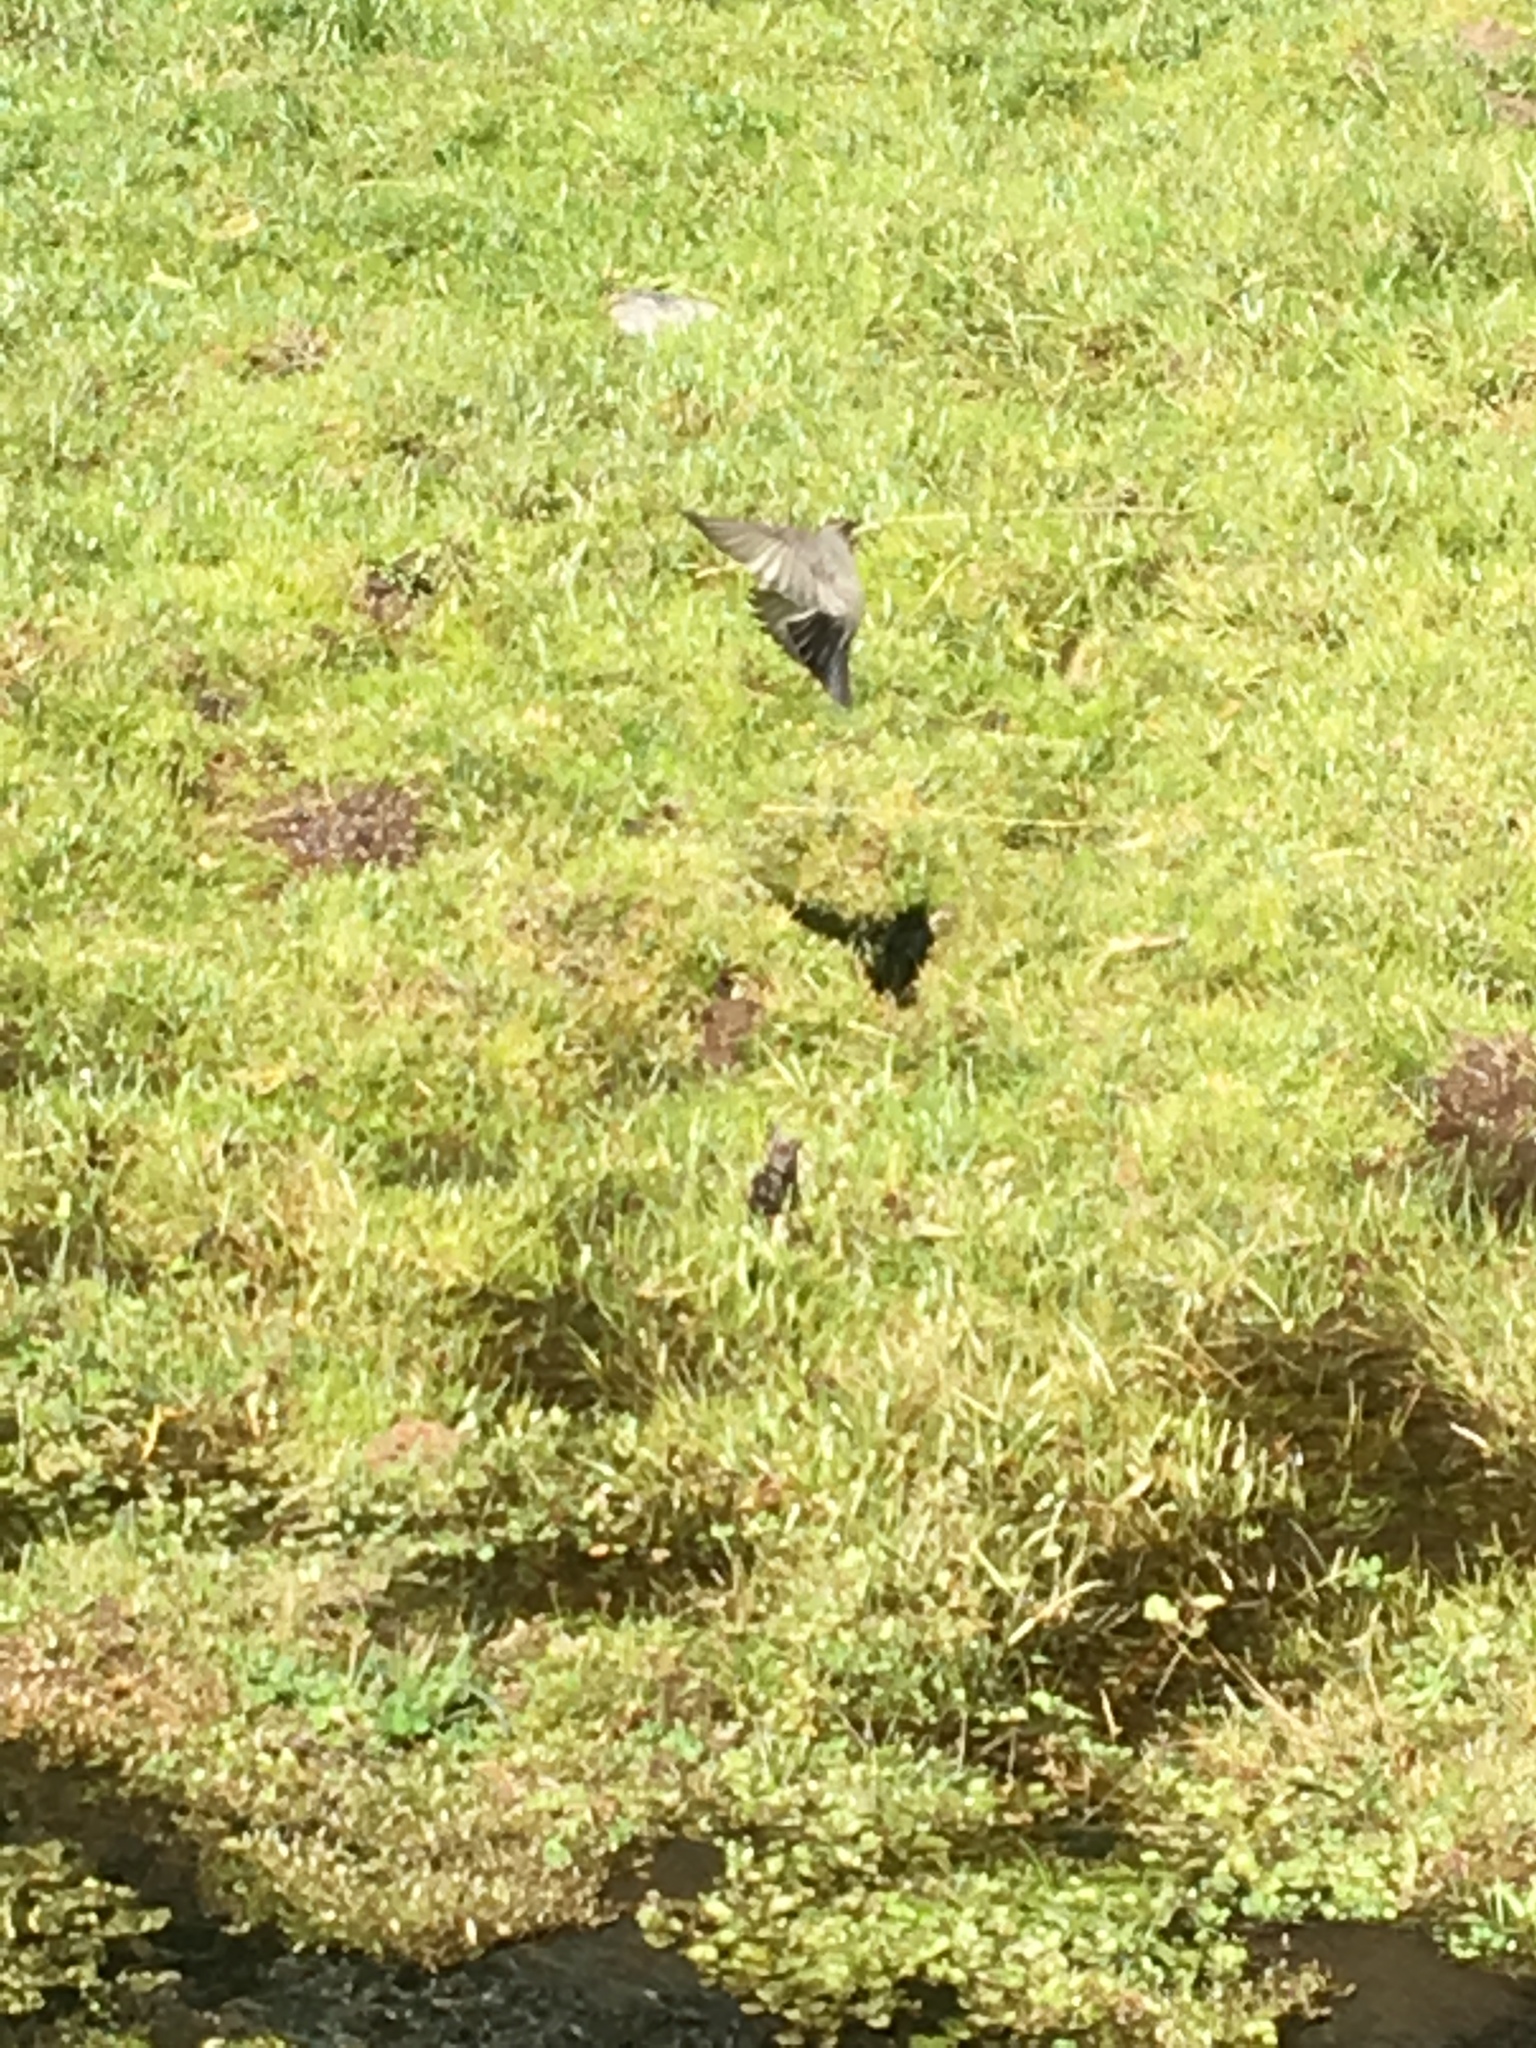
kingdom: Animalia
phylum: Chordata
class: Aves
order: Passeriformes
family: Tyrannidae
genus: Muscisaxicola
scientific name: Muscisaxicola albilora
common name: White-browed ground tyrant
